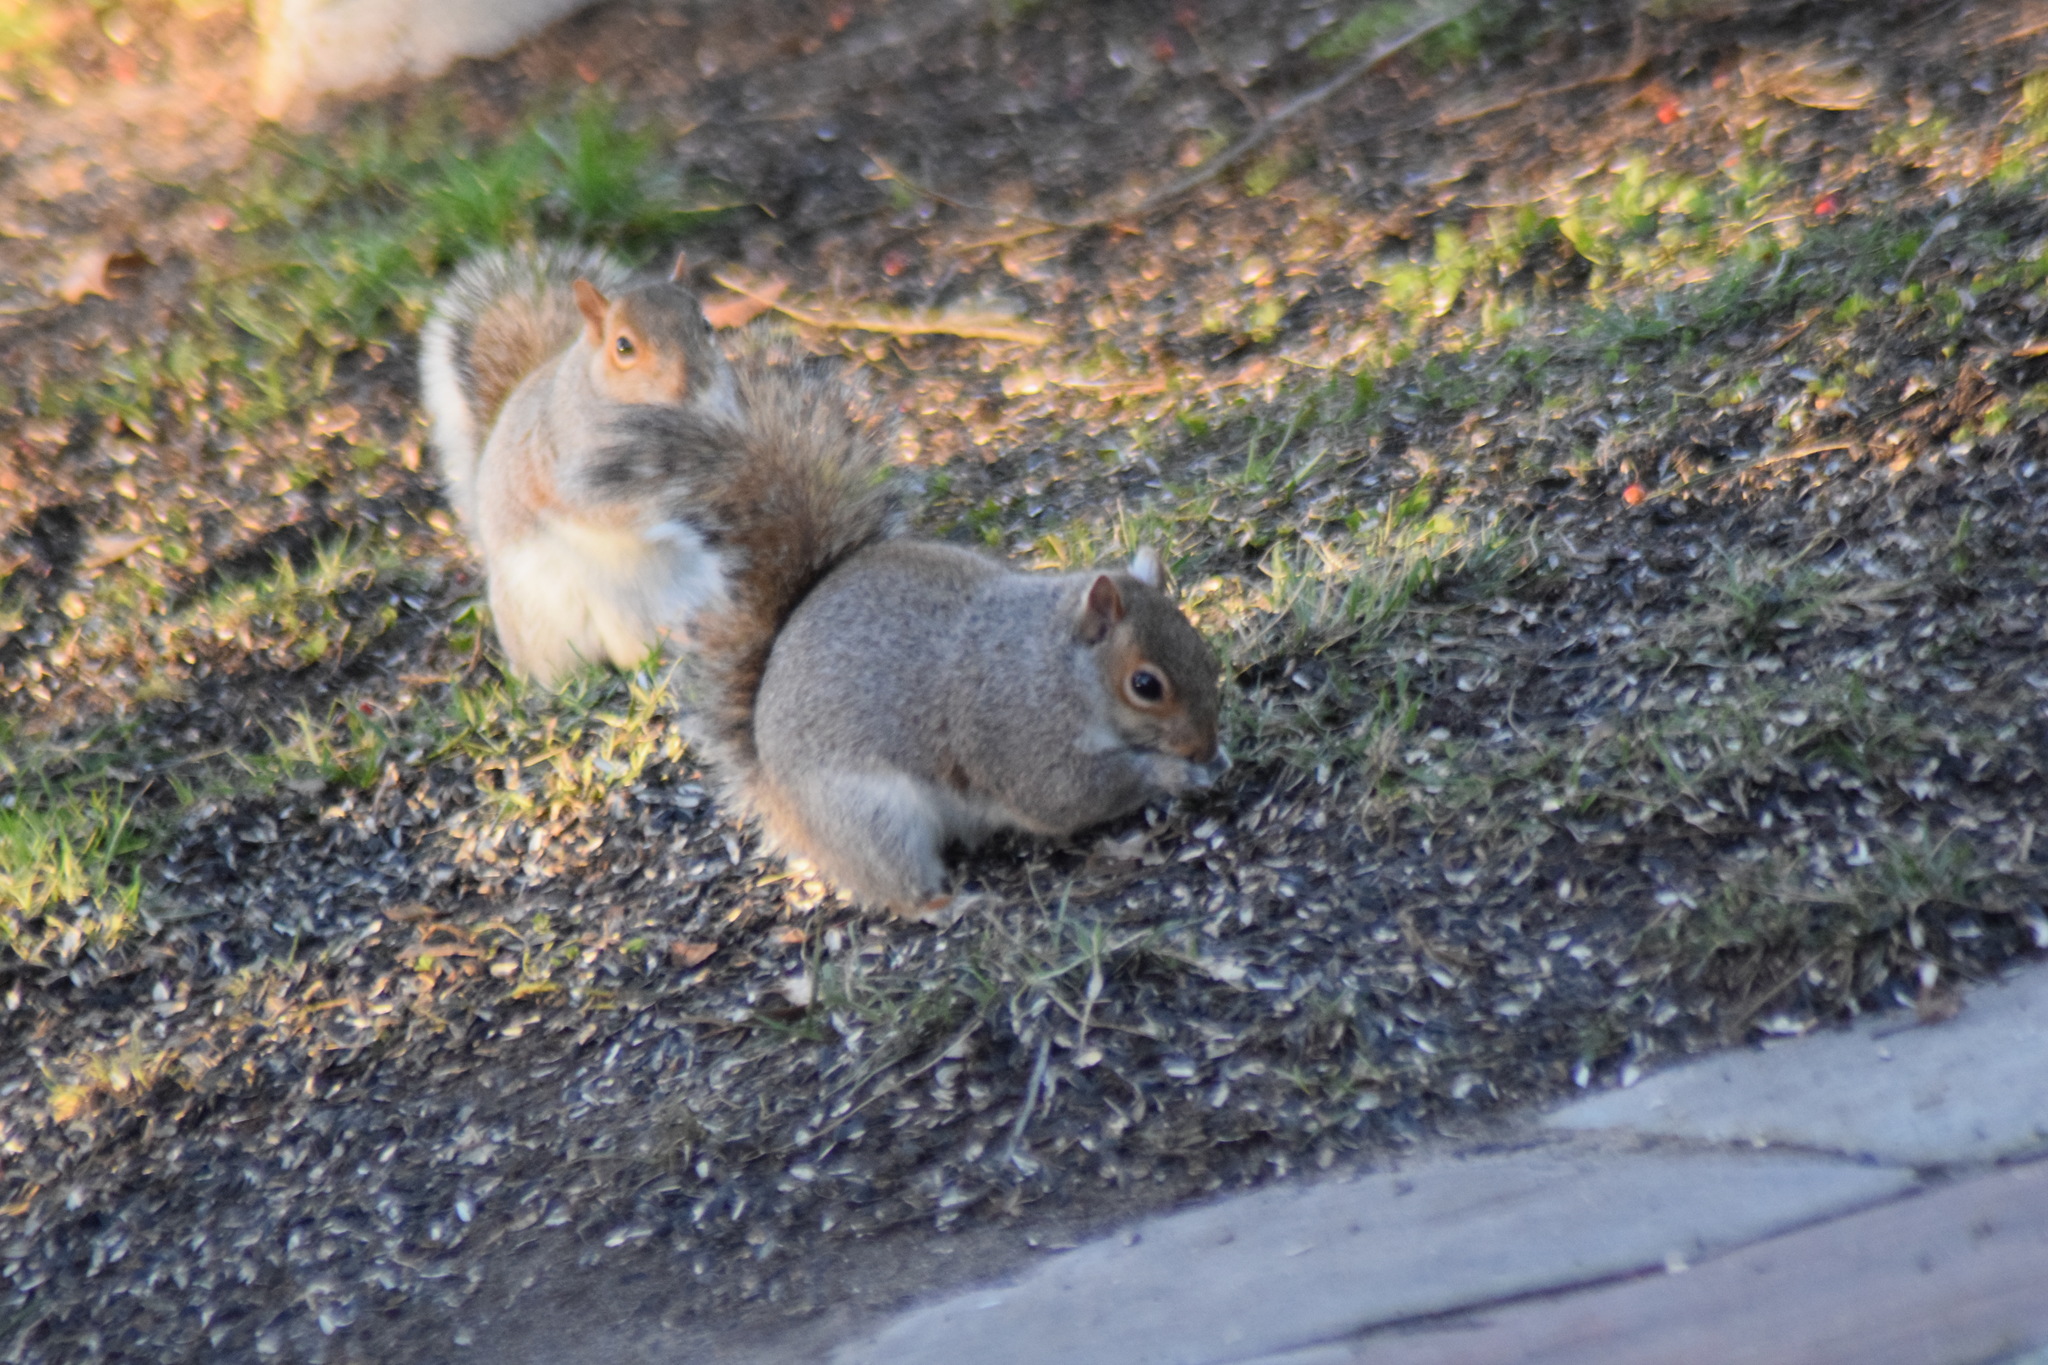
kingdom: Animalia
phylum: Chordata
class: Mammalia
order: Rodentia
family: Sciuridae
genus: Sciurus
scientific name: Sciurus carolinensis
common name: Eastern gray squirrel
